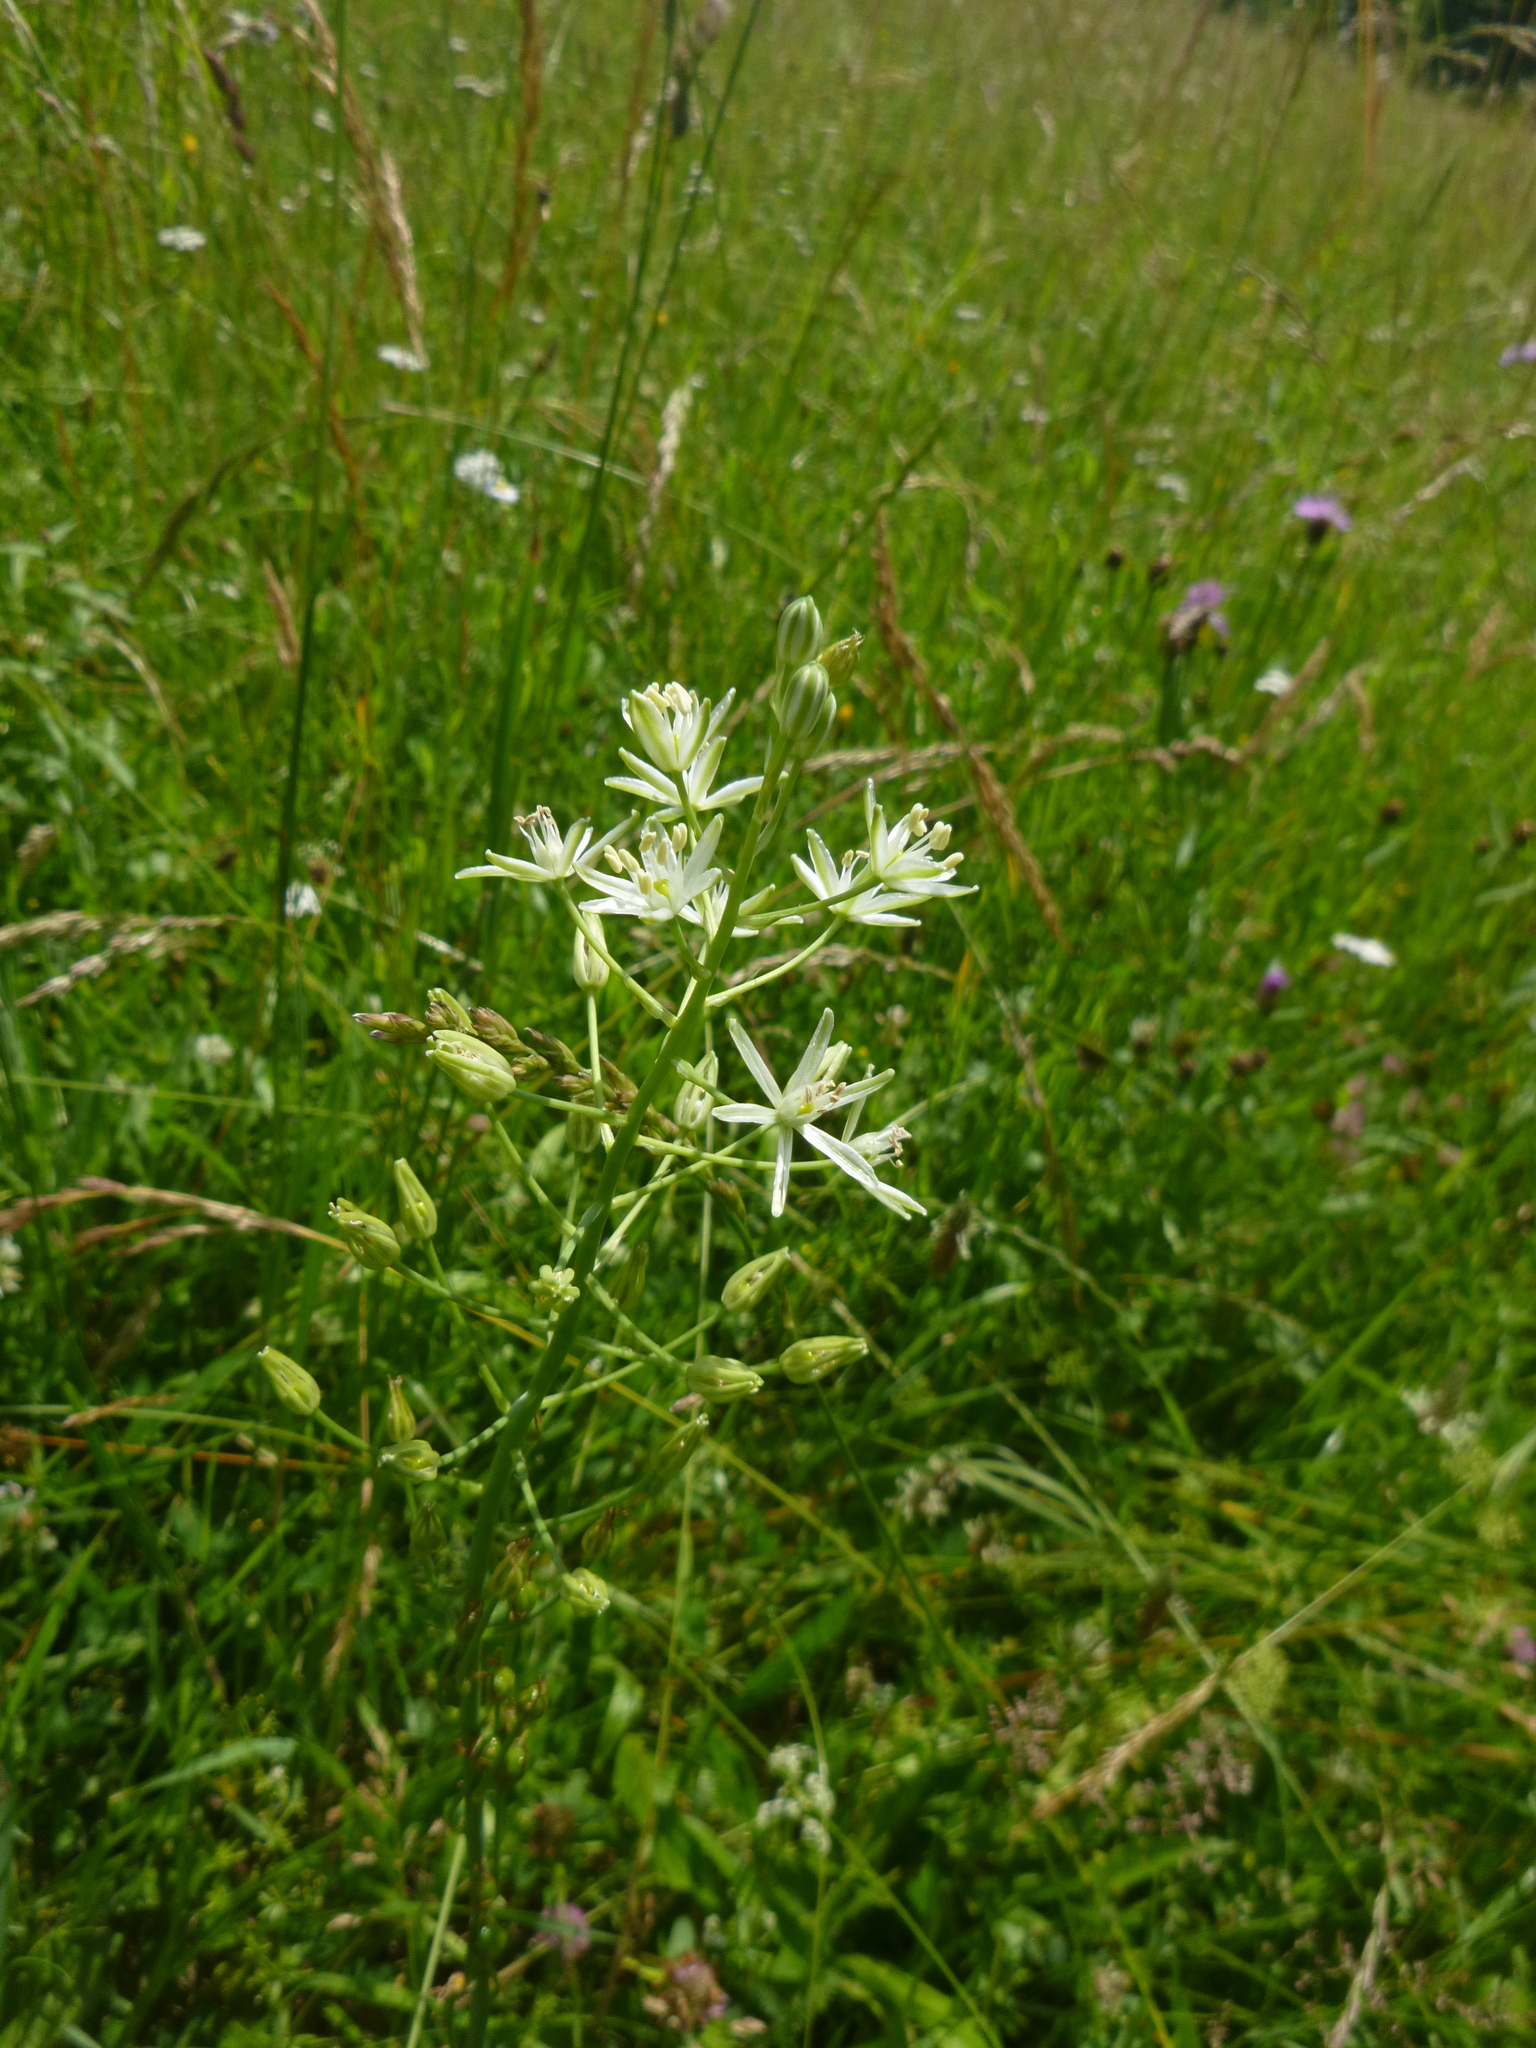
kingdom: Plantae
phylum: Tracheophyta
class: Liliopsida
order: Asparagales
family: Asparagaceae
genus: Ornithogalum
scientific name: Ornithogalum sphaerocarpum
